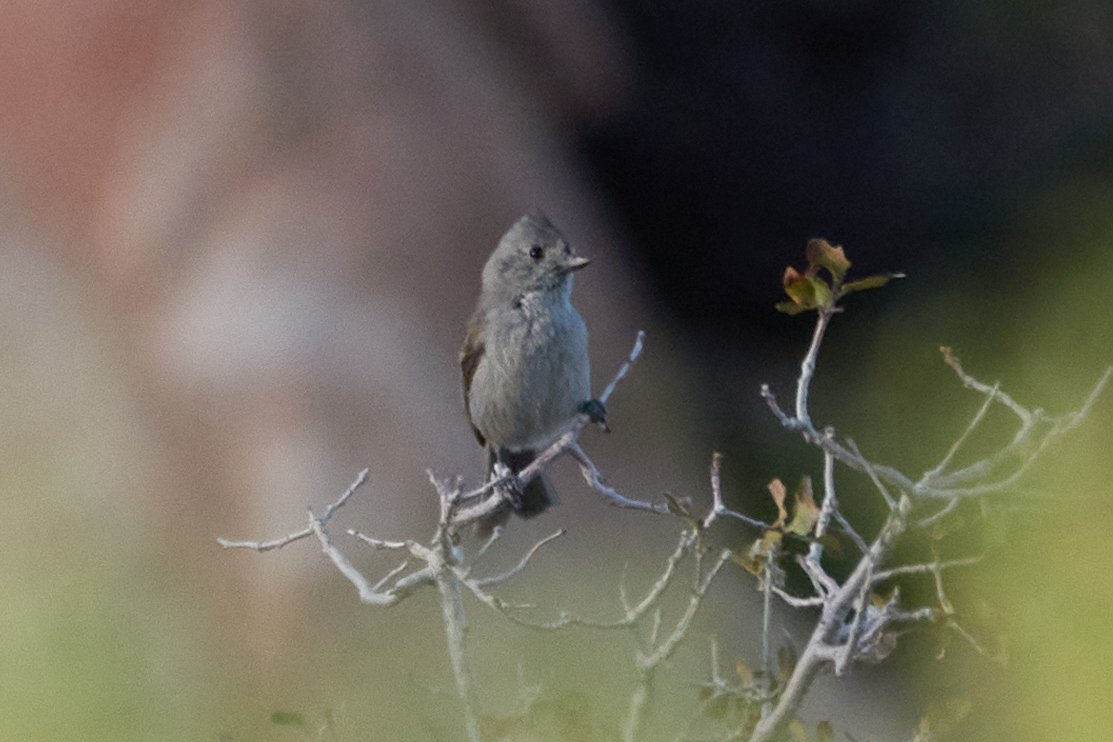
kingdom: Animalia
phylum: Chordata
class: Aves
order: Passeriformes
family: Paridae
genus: Baeolophus
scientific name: Baeolophus inornatus
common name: Oak titmouse
